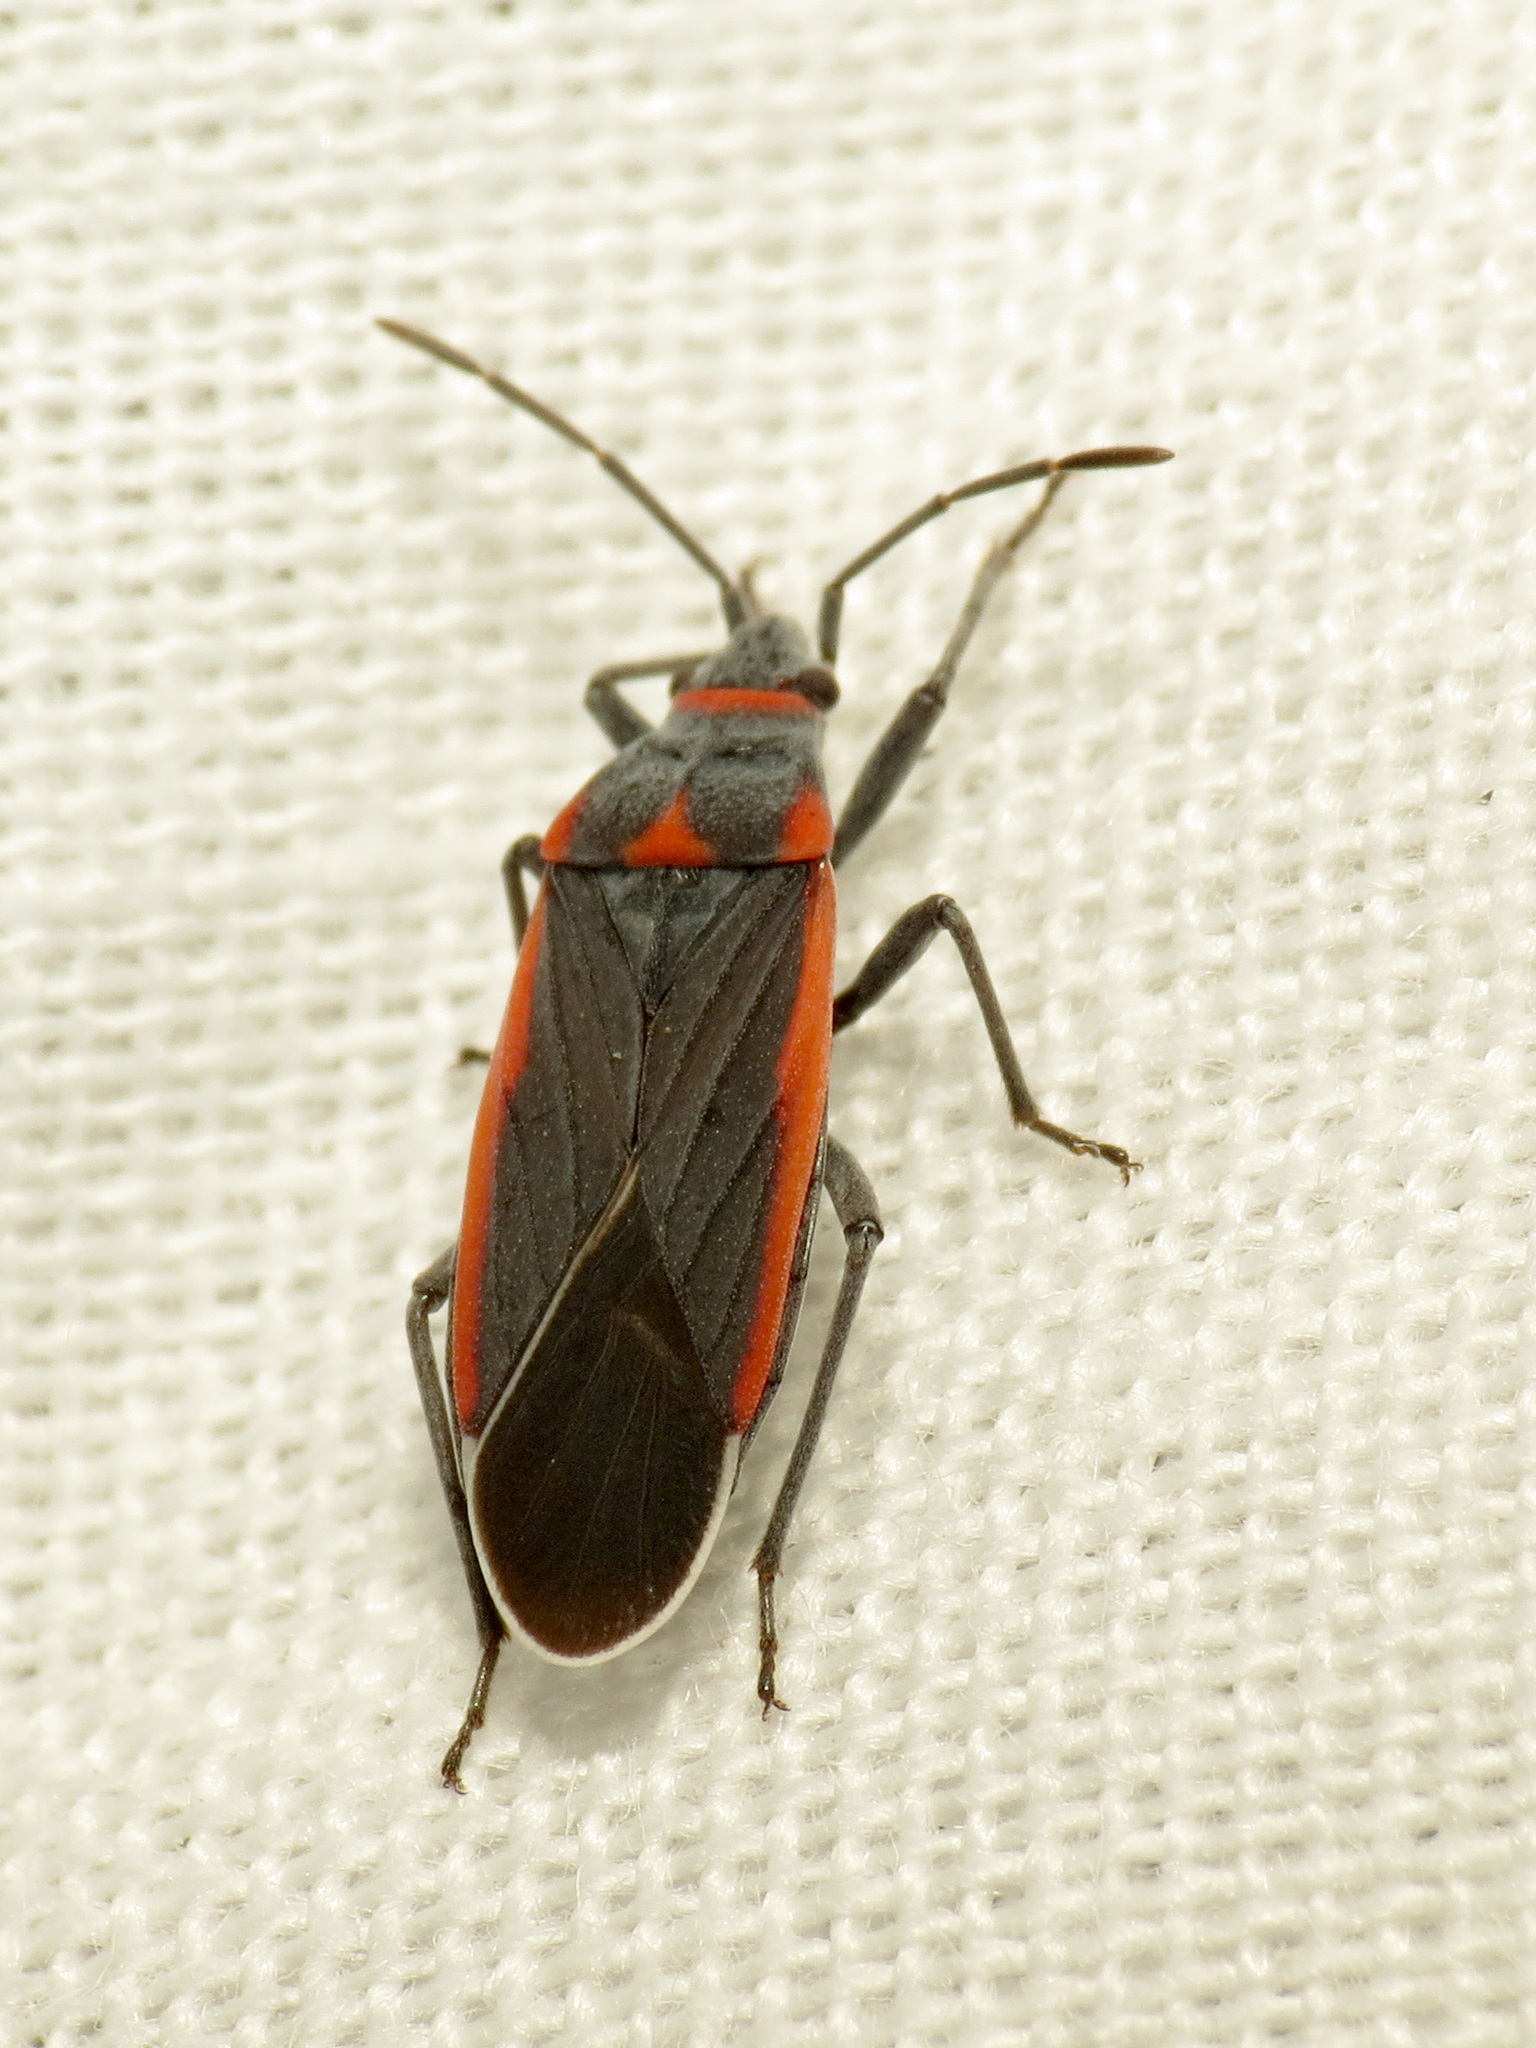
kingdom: Animalia
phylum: Arthropoda
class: Insecta
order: Hemiptera
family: Lygaeidae
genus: Melacoryphus
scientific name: Melacoryphus lateralis
